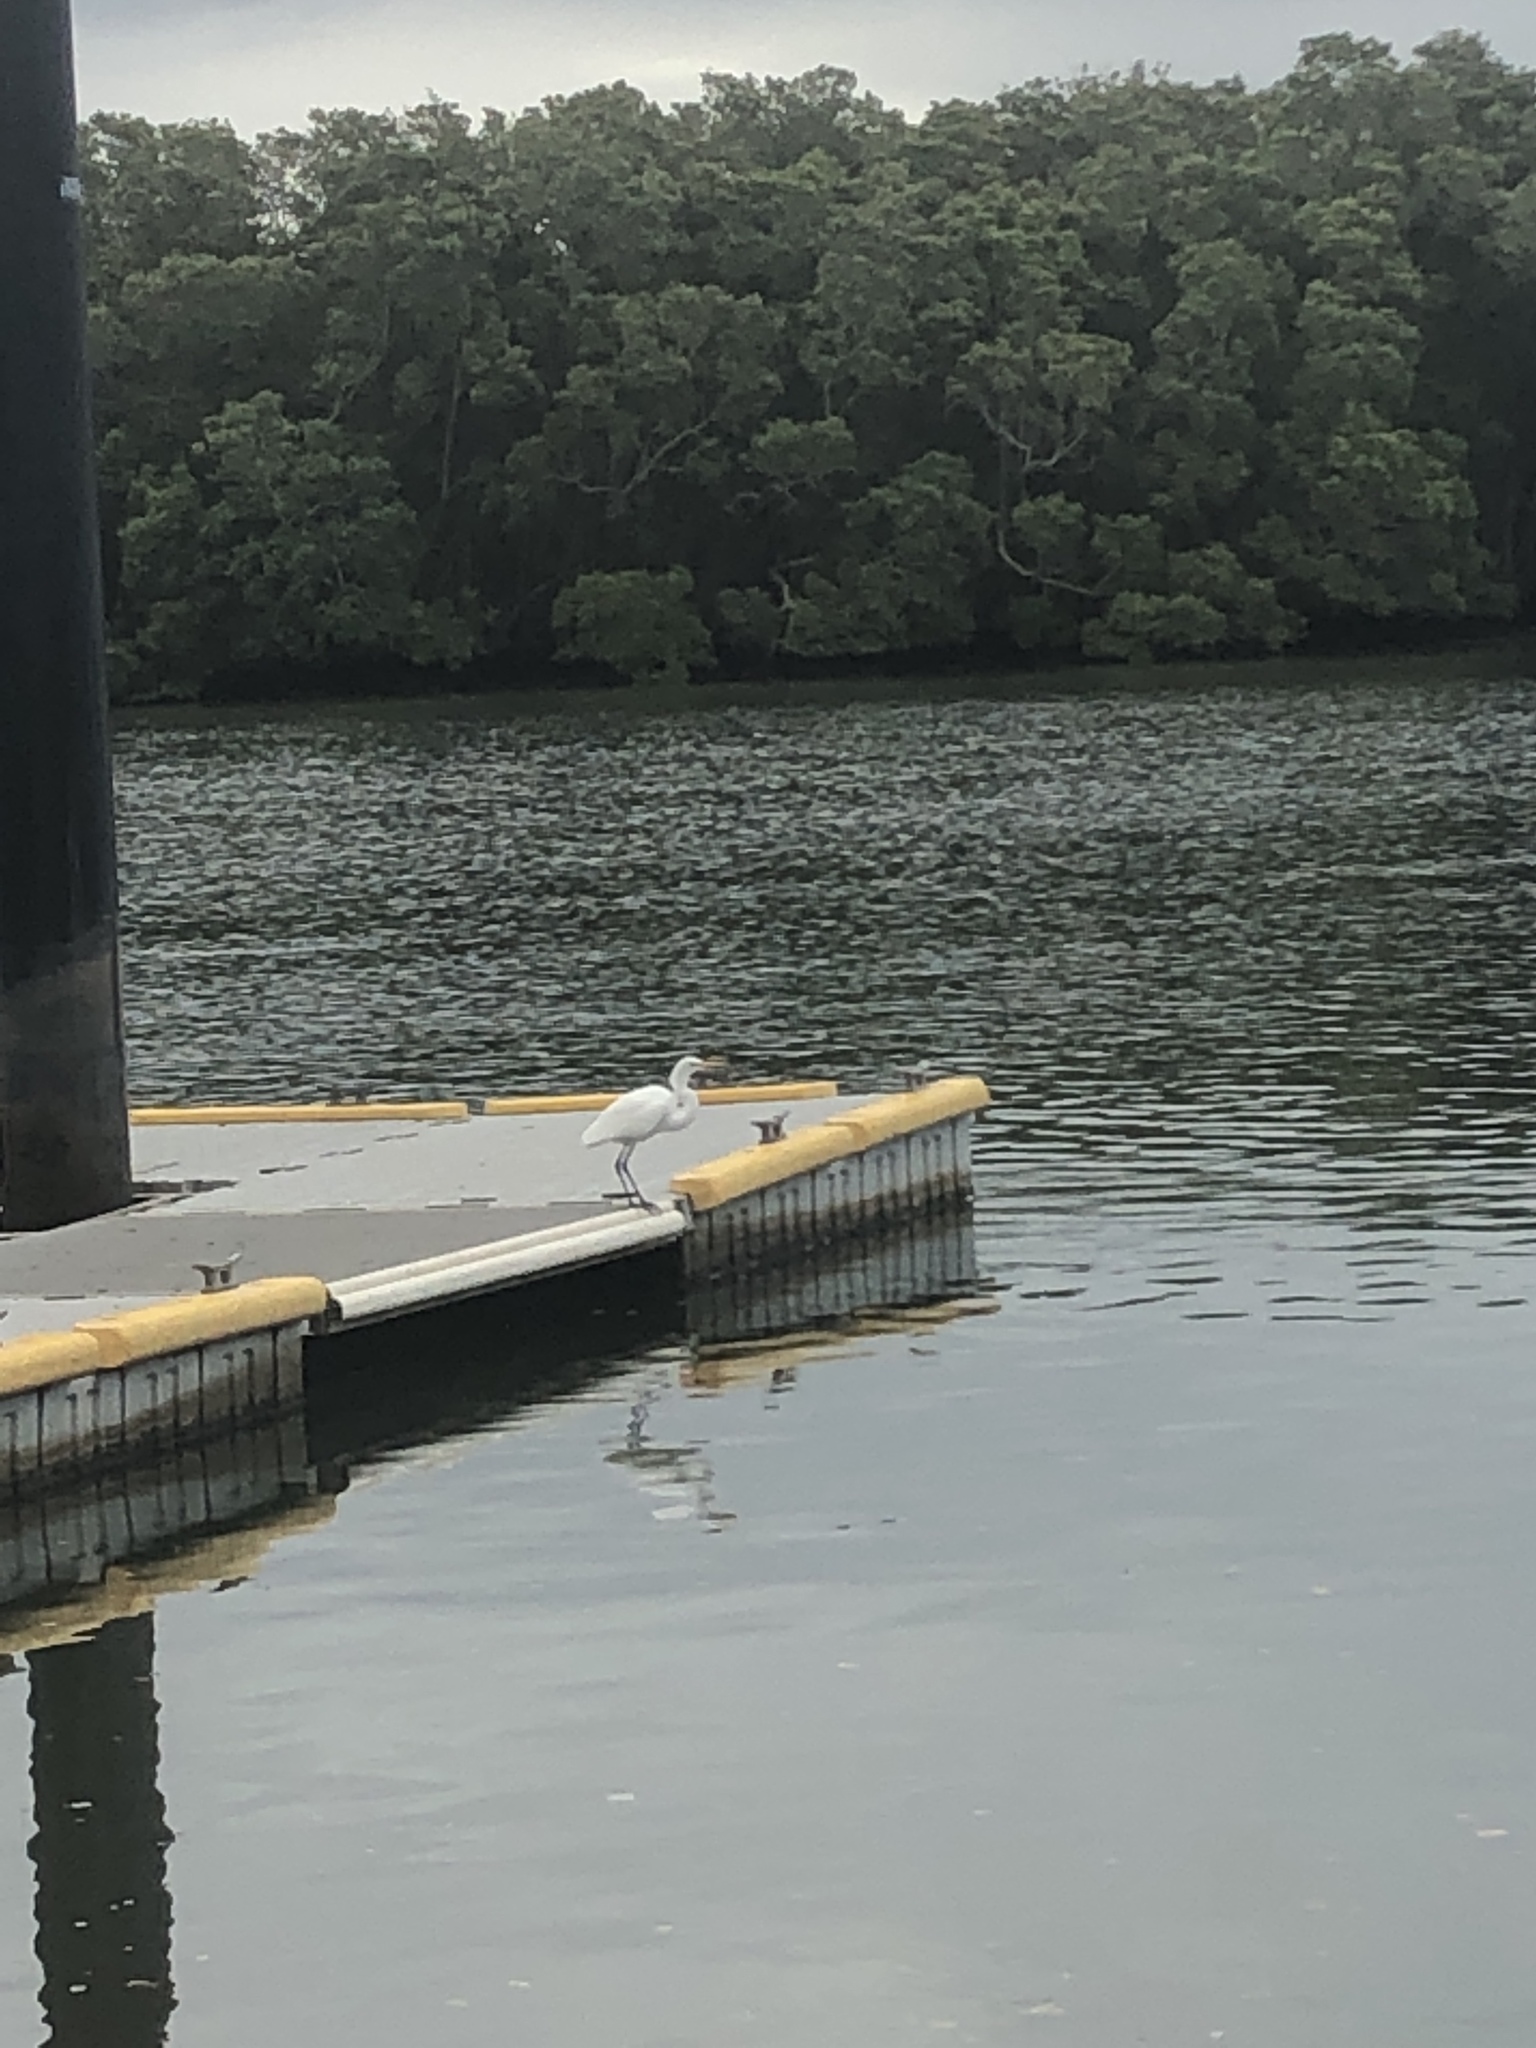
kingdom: Animalia
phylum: Chordata
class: Aves
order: Pelecaniformes
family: Ardeidae
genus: Ardea
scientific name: Ardea alba
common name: Great egret
